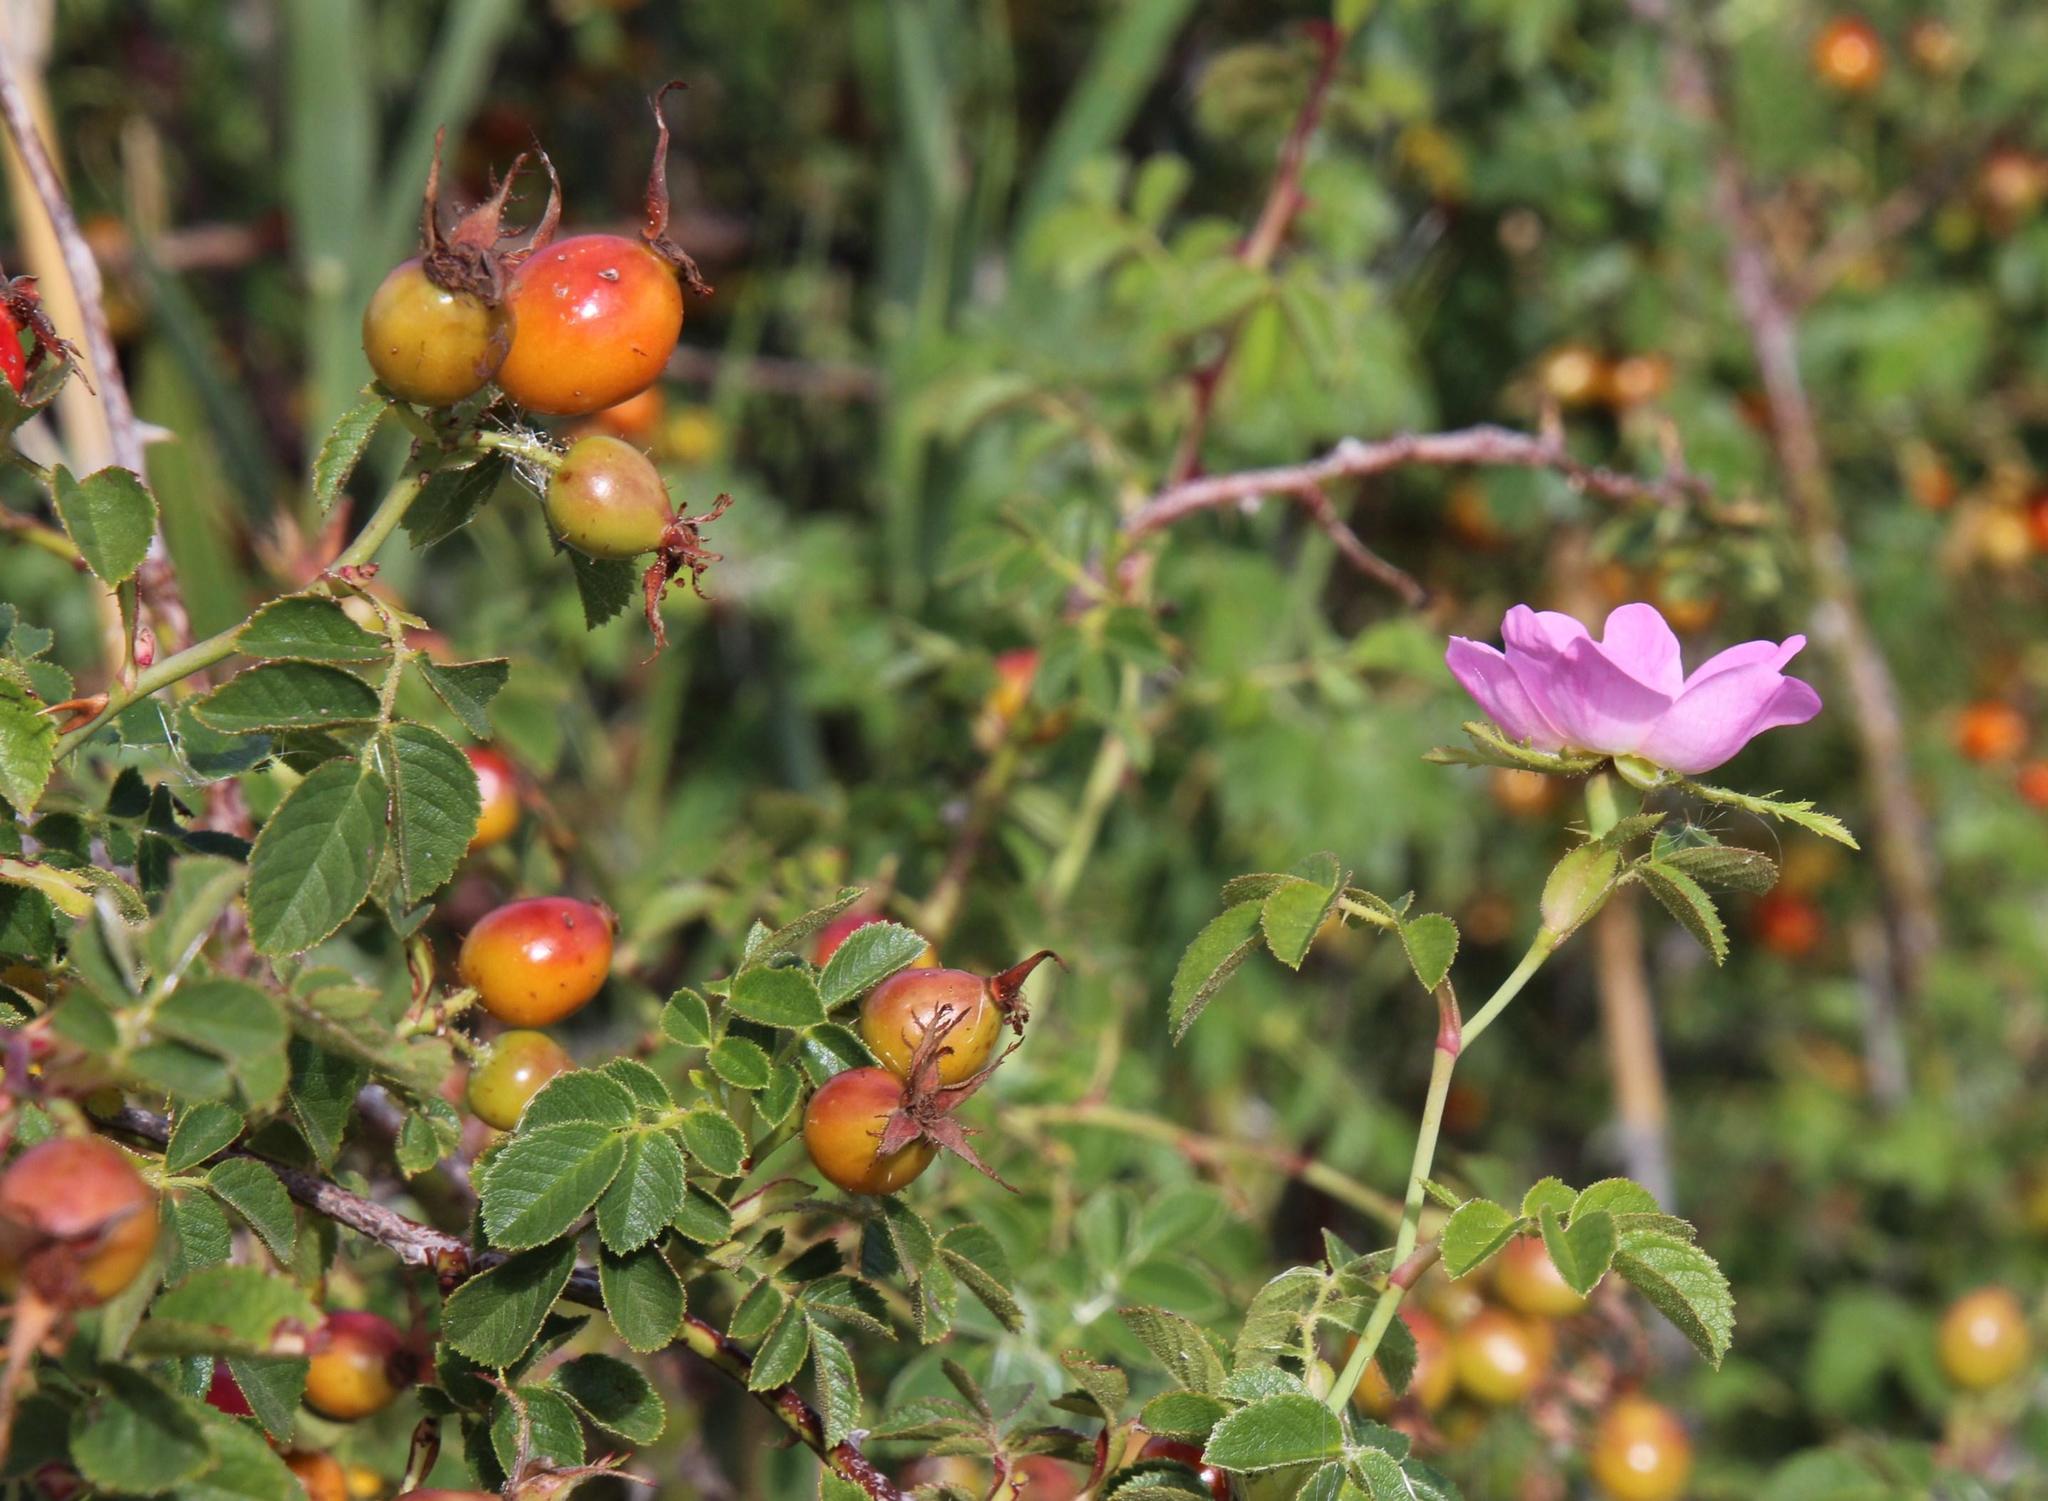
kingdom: Plantae
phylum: Tracheophyta
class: Magnoliopsida
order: Rosales
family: Rosaceae
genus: Rosa
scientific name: Rosa rubiginosa
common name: Sweet-briar
